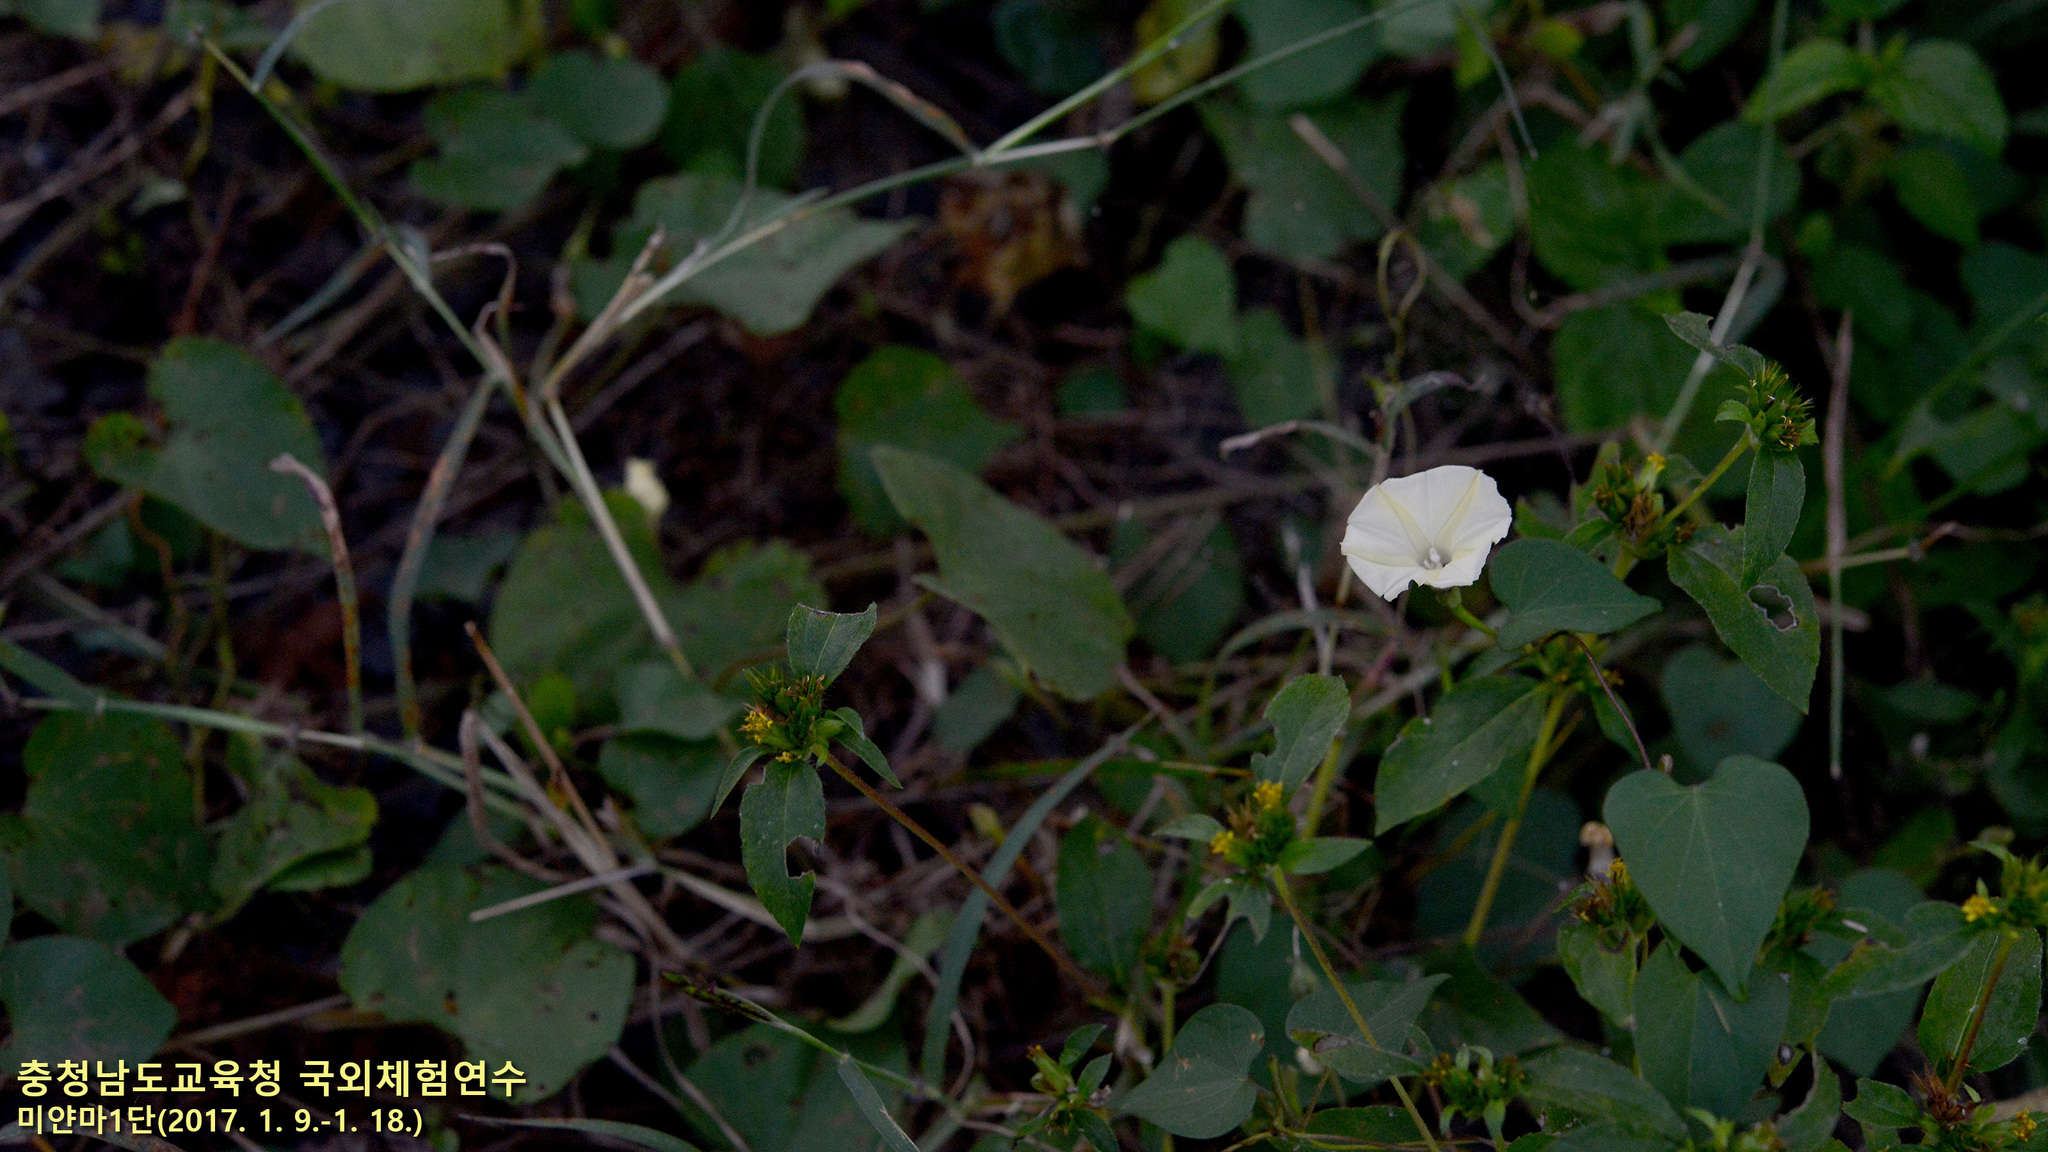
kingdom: Plantae
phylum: Tracheophyta
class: Magnoliopsida
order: Solanales
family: Convolvulaceae
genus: Ipomoea
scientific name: Ipomoea obscura
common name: Obscure morning-glory
